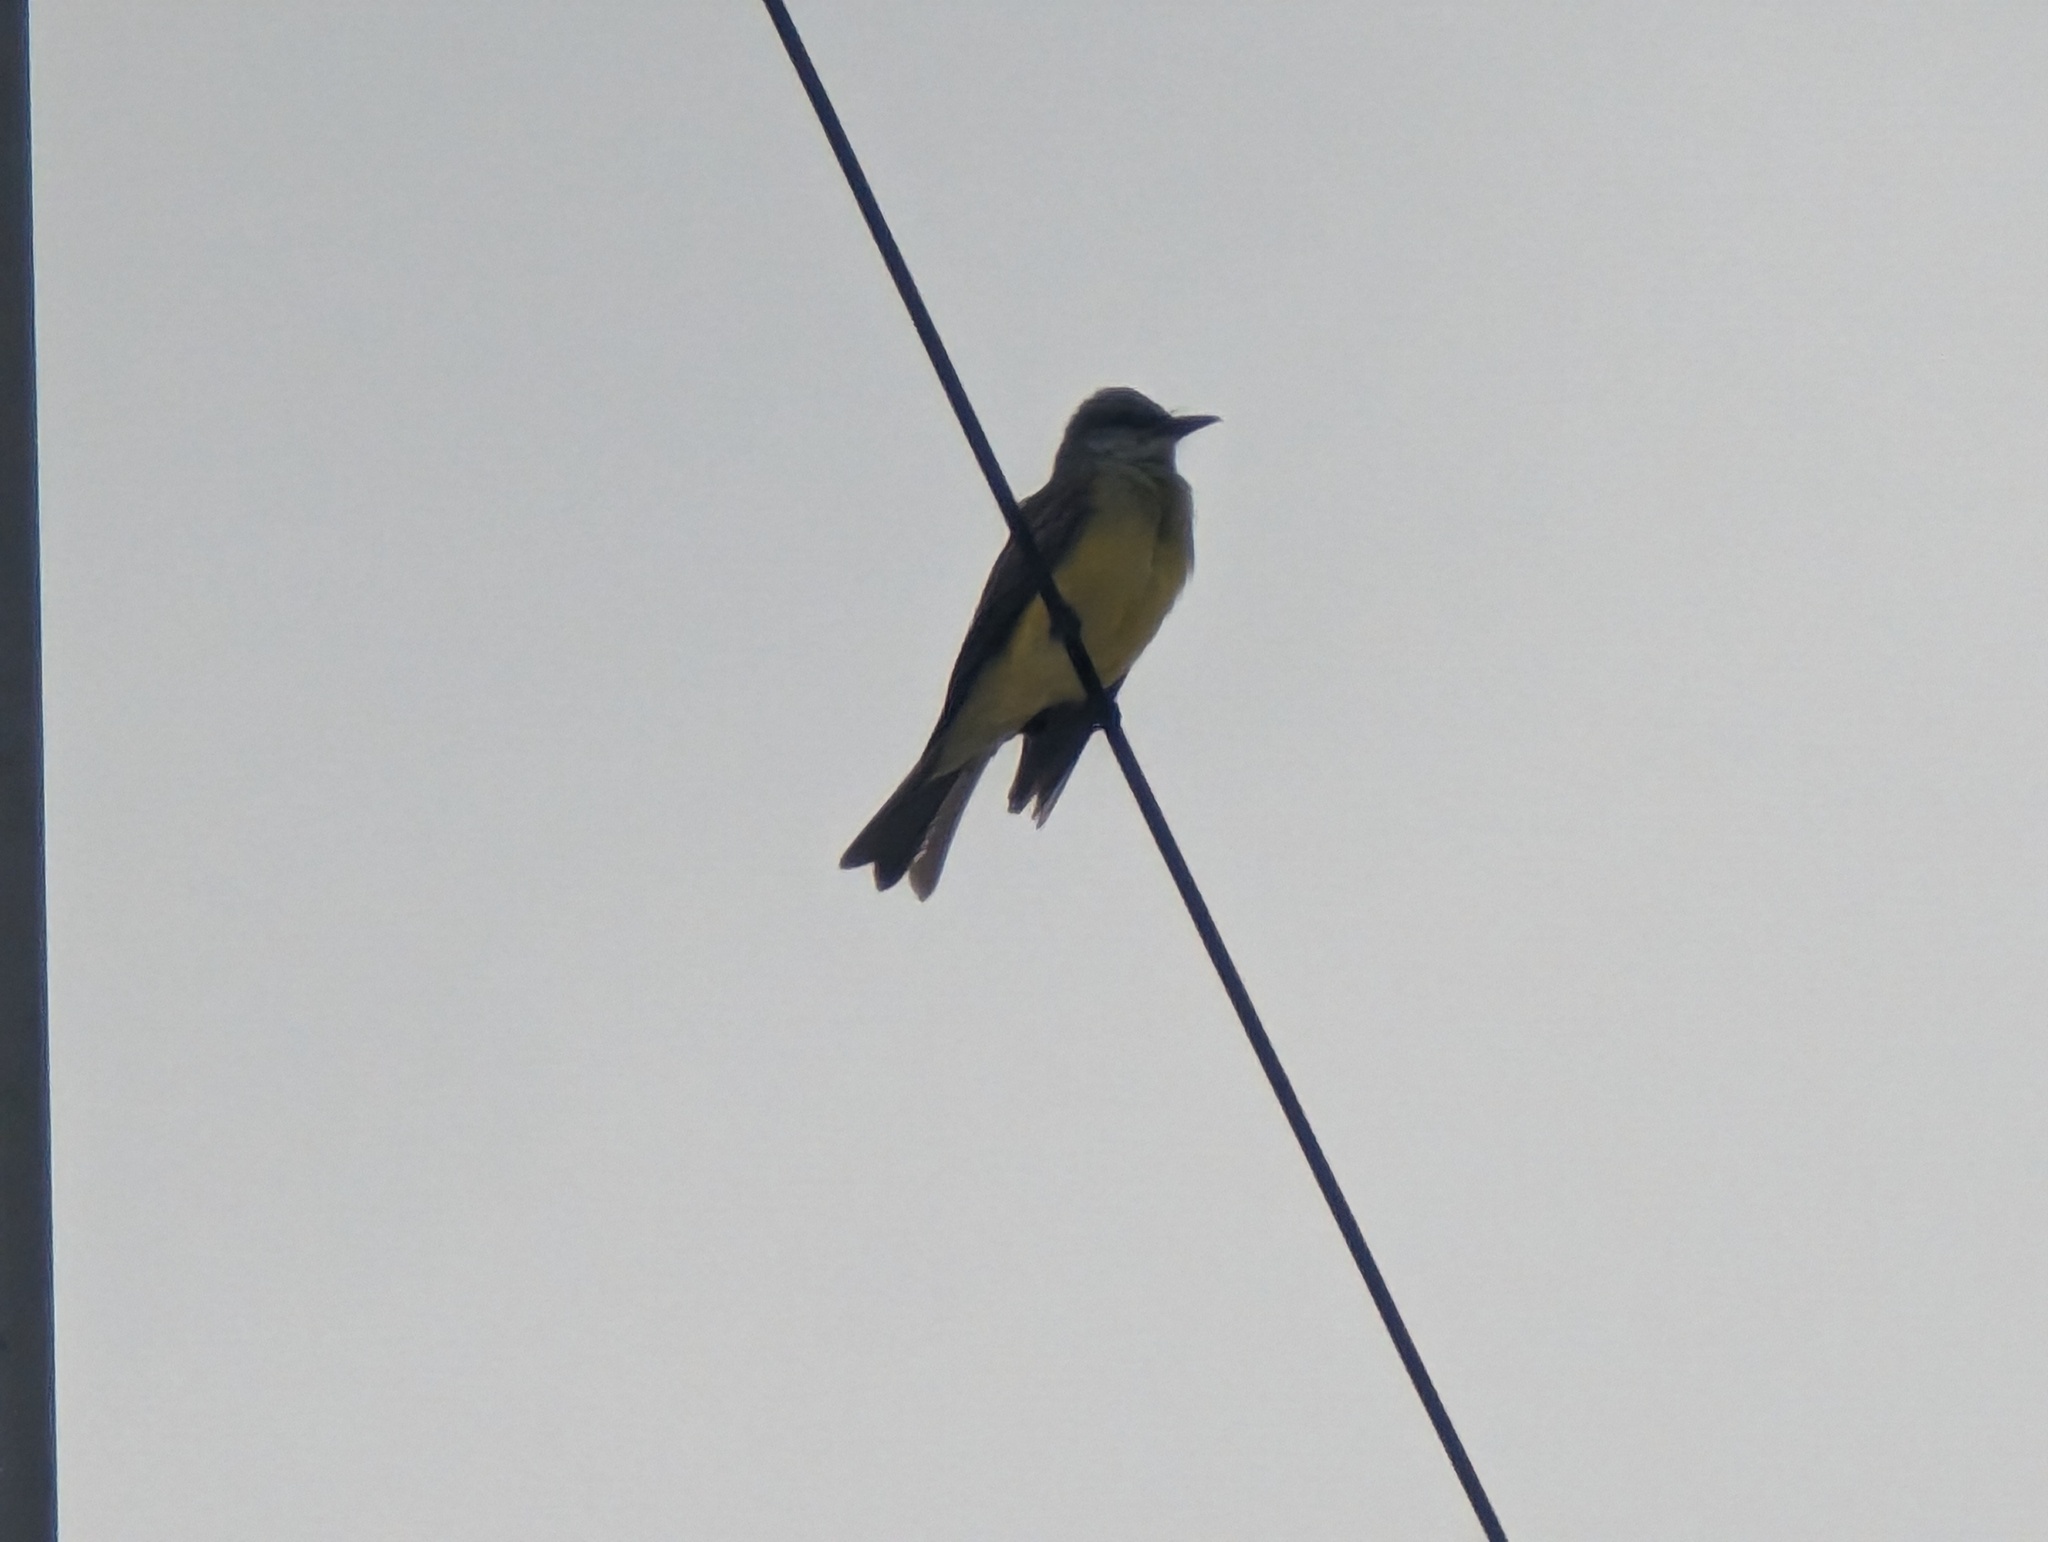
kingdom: Animalia
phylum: Chordata
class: Aves
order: Passeriformes
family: Tyrannidae
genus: Tyrannus
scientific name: Tyrannus melancholicus
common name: Tropical kingbird
